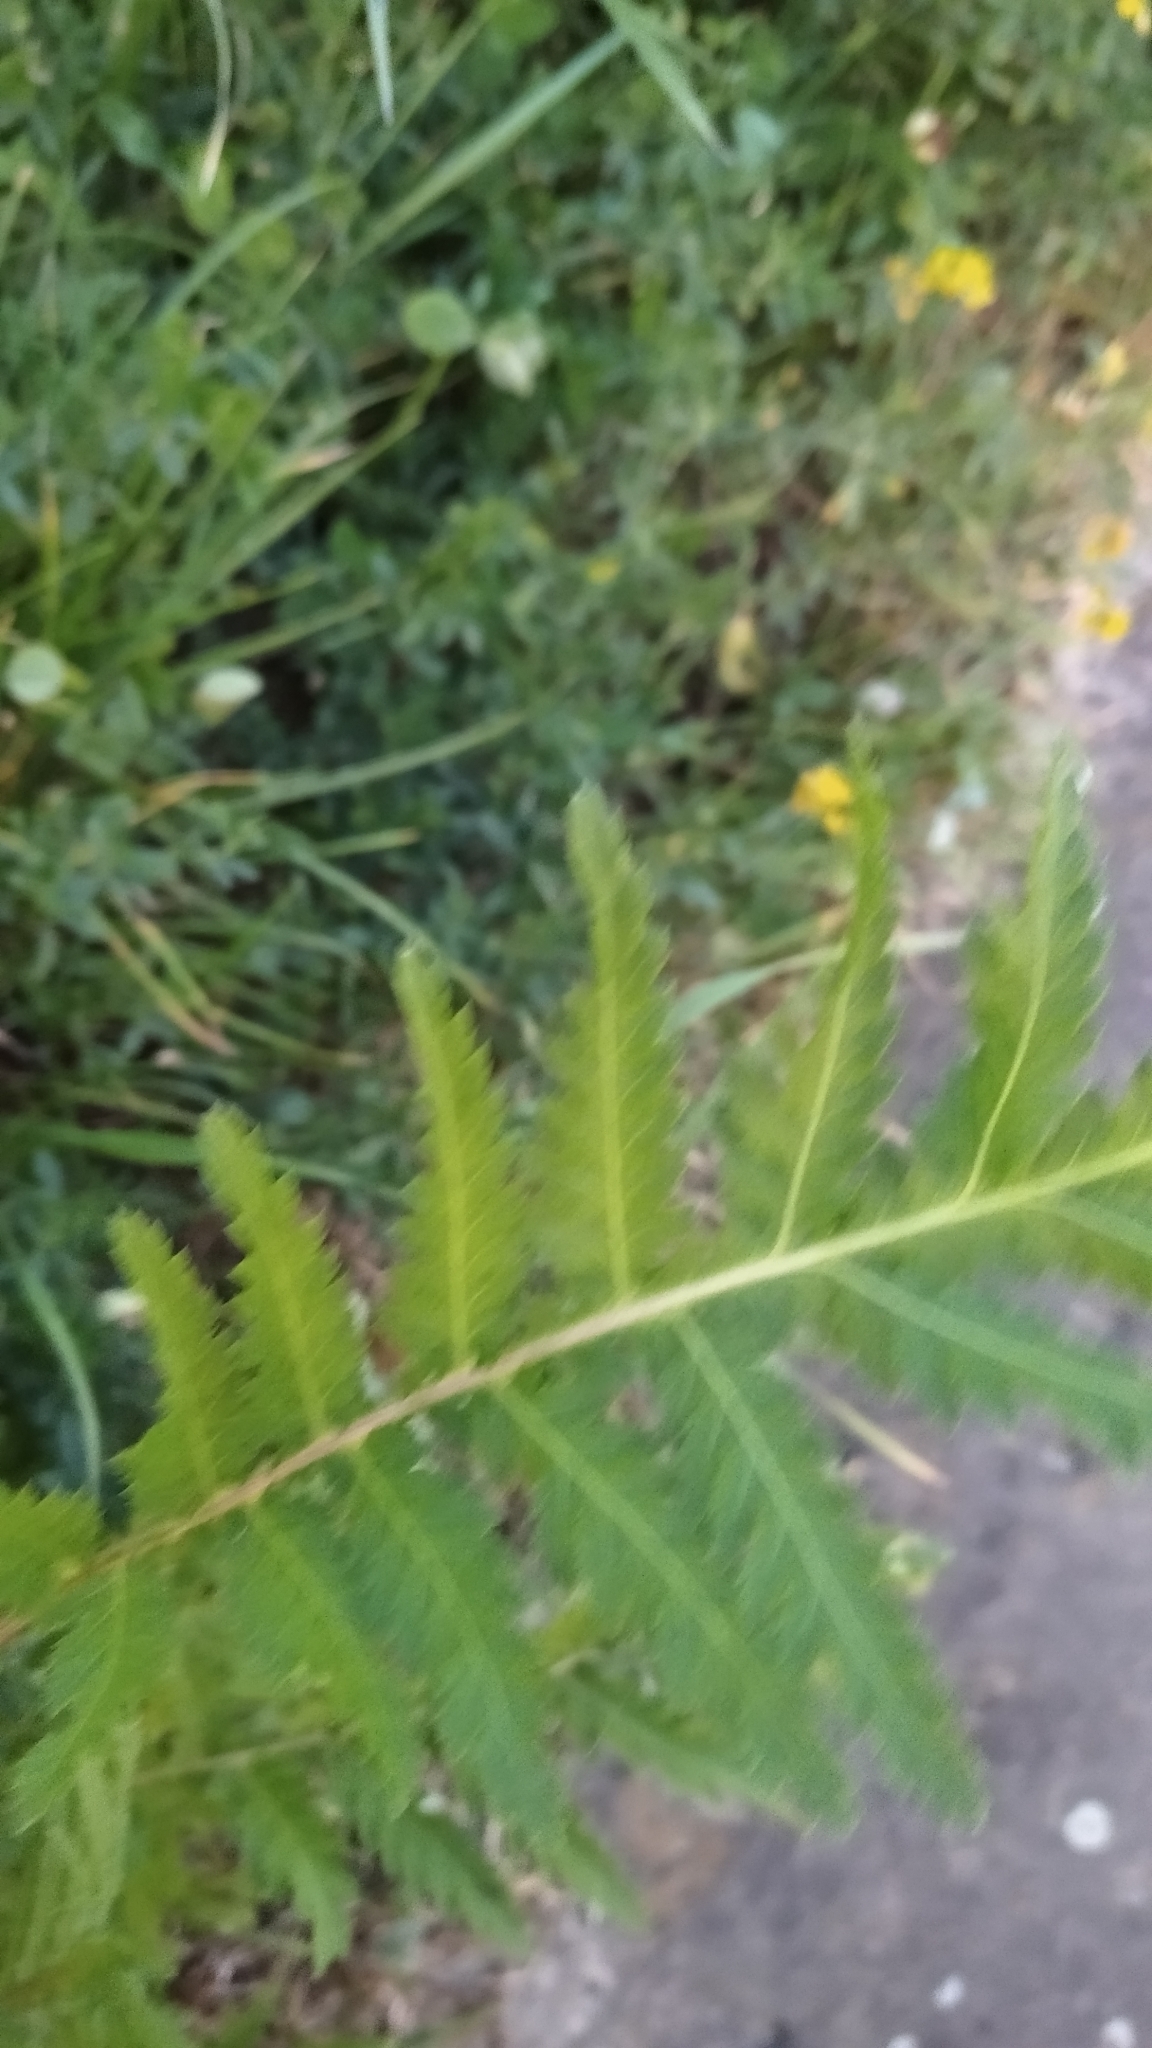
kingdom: Plantae
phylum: Tracheophyta
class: Magnoliopsida
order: Asterales
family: Asteraceae
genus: Tanacetum
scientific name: Tanacetum vulgare
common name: Common tansy
